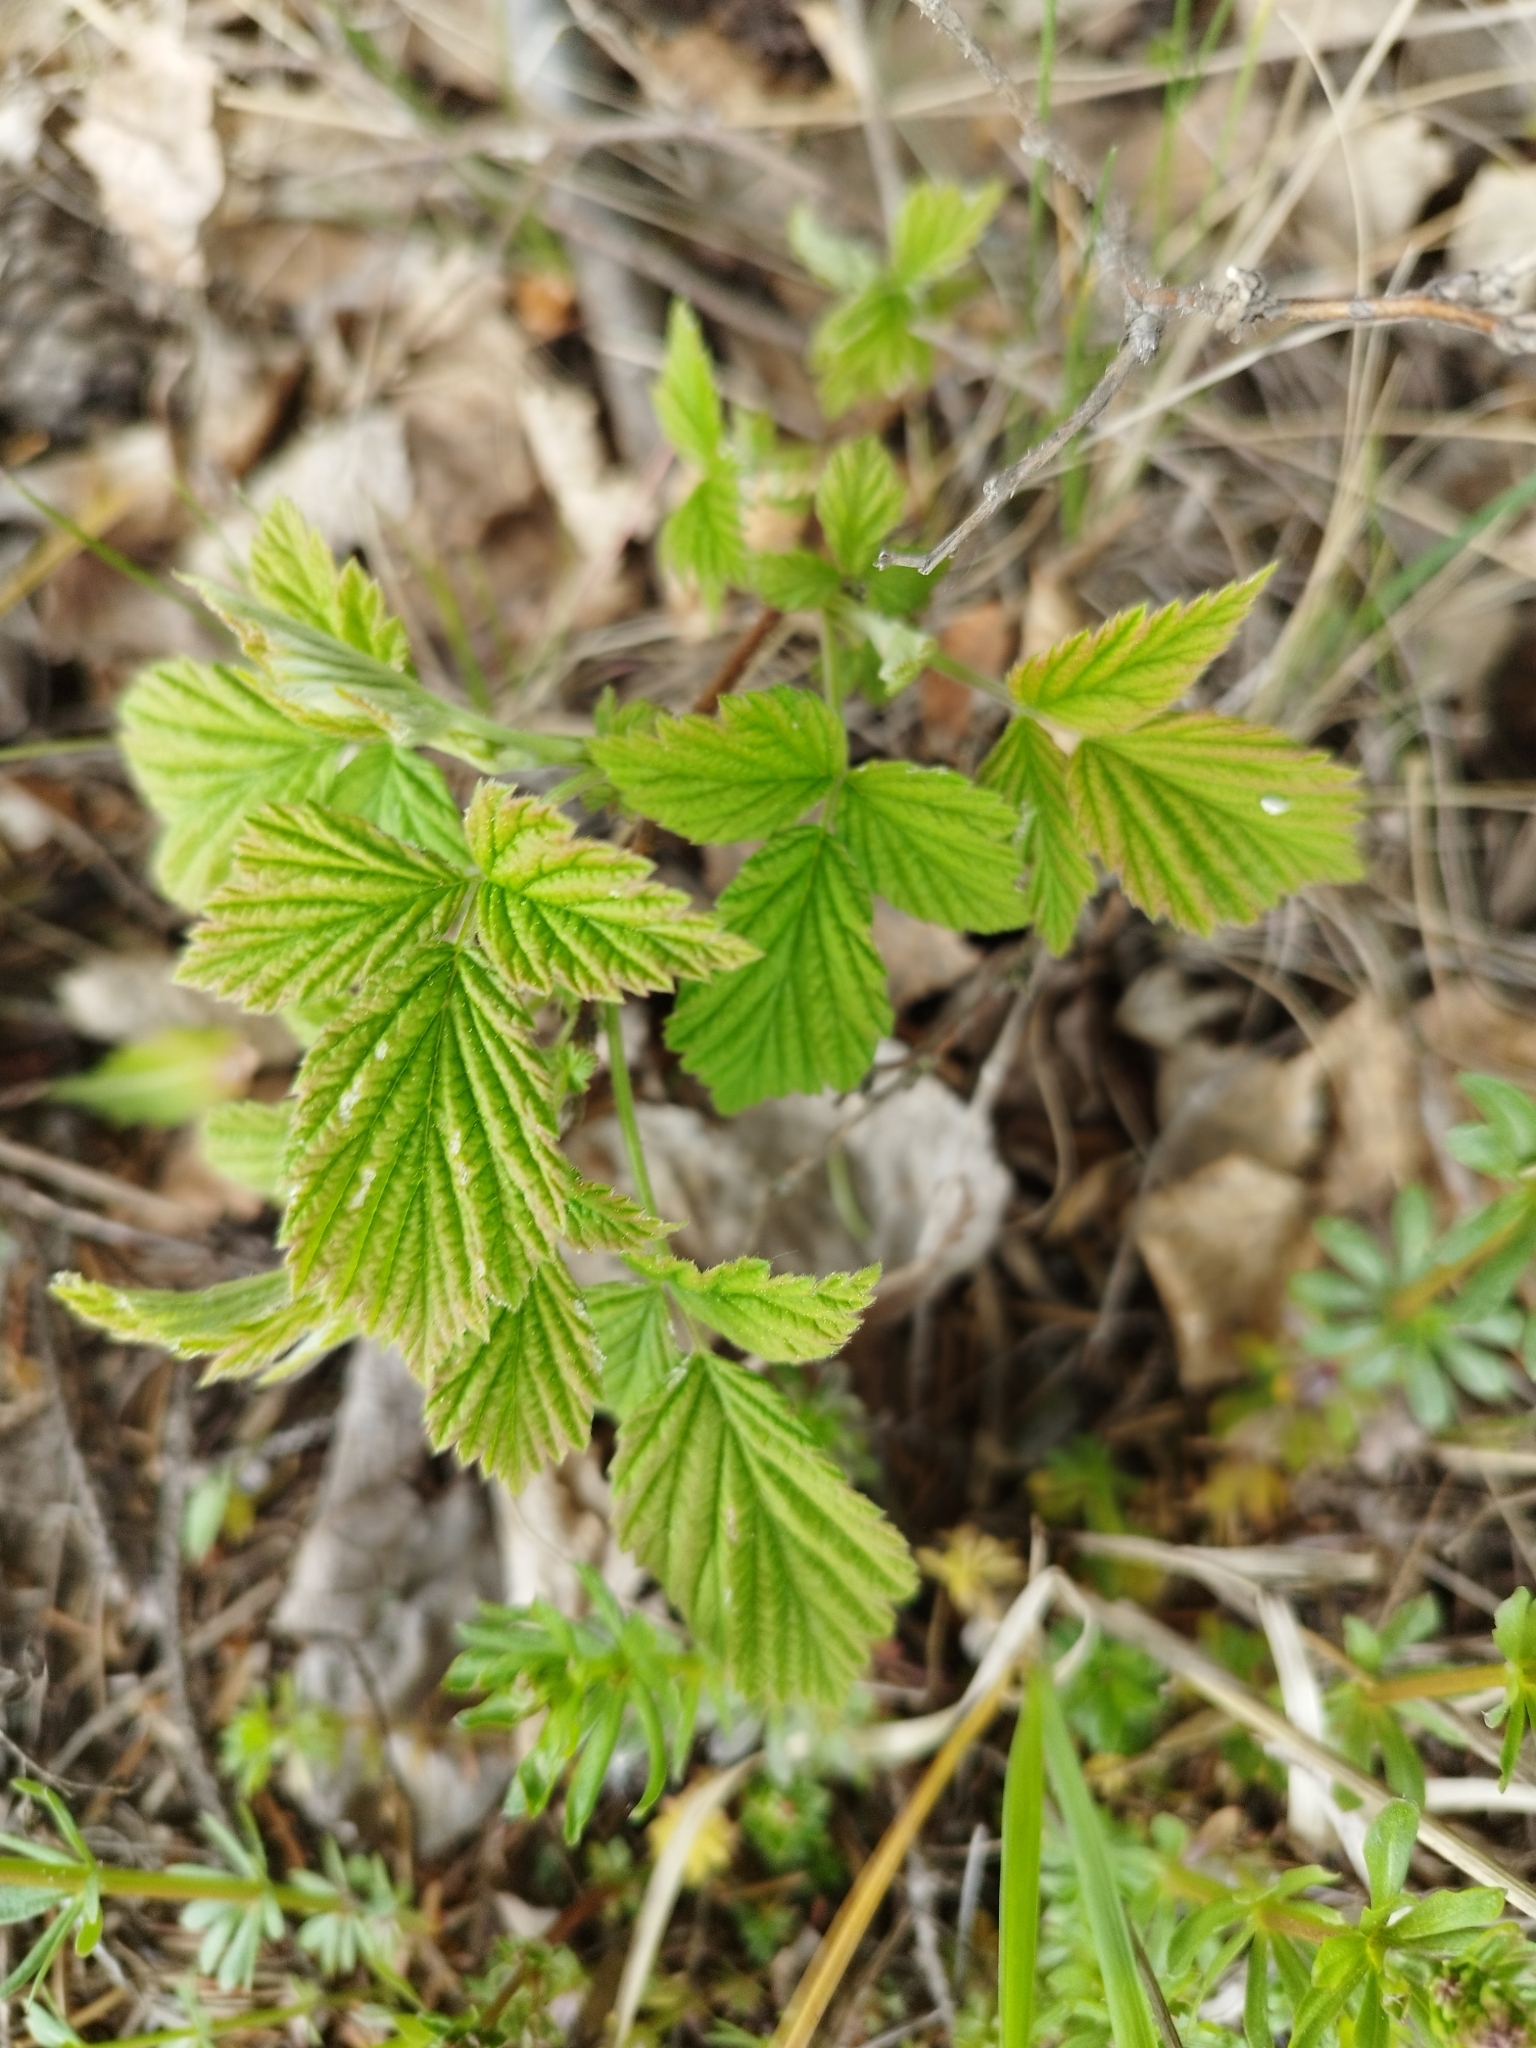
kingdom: Plantae
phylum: Tracheophyta
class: Magnoliopsida
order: Rosales
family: Rosaceae
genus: Rubus
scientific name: Rubus idaeus
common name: Raspberry
